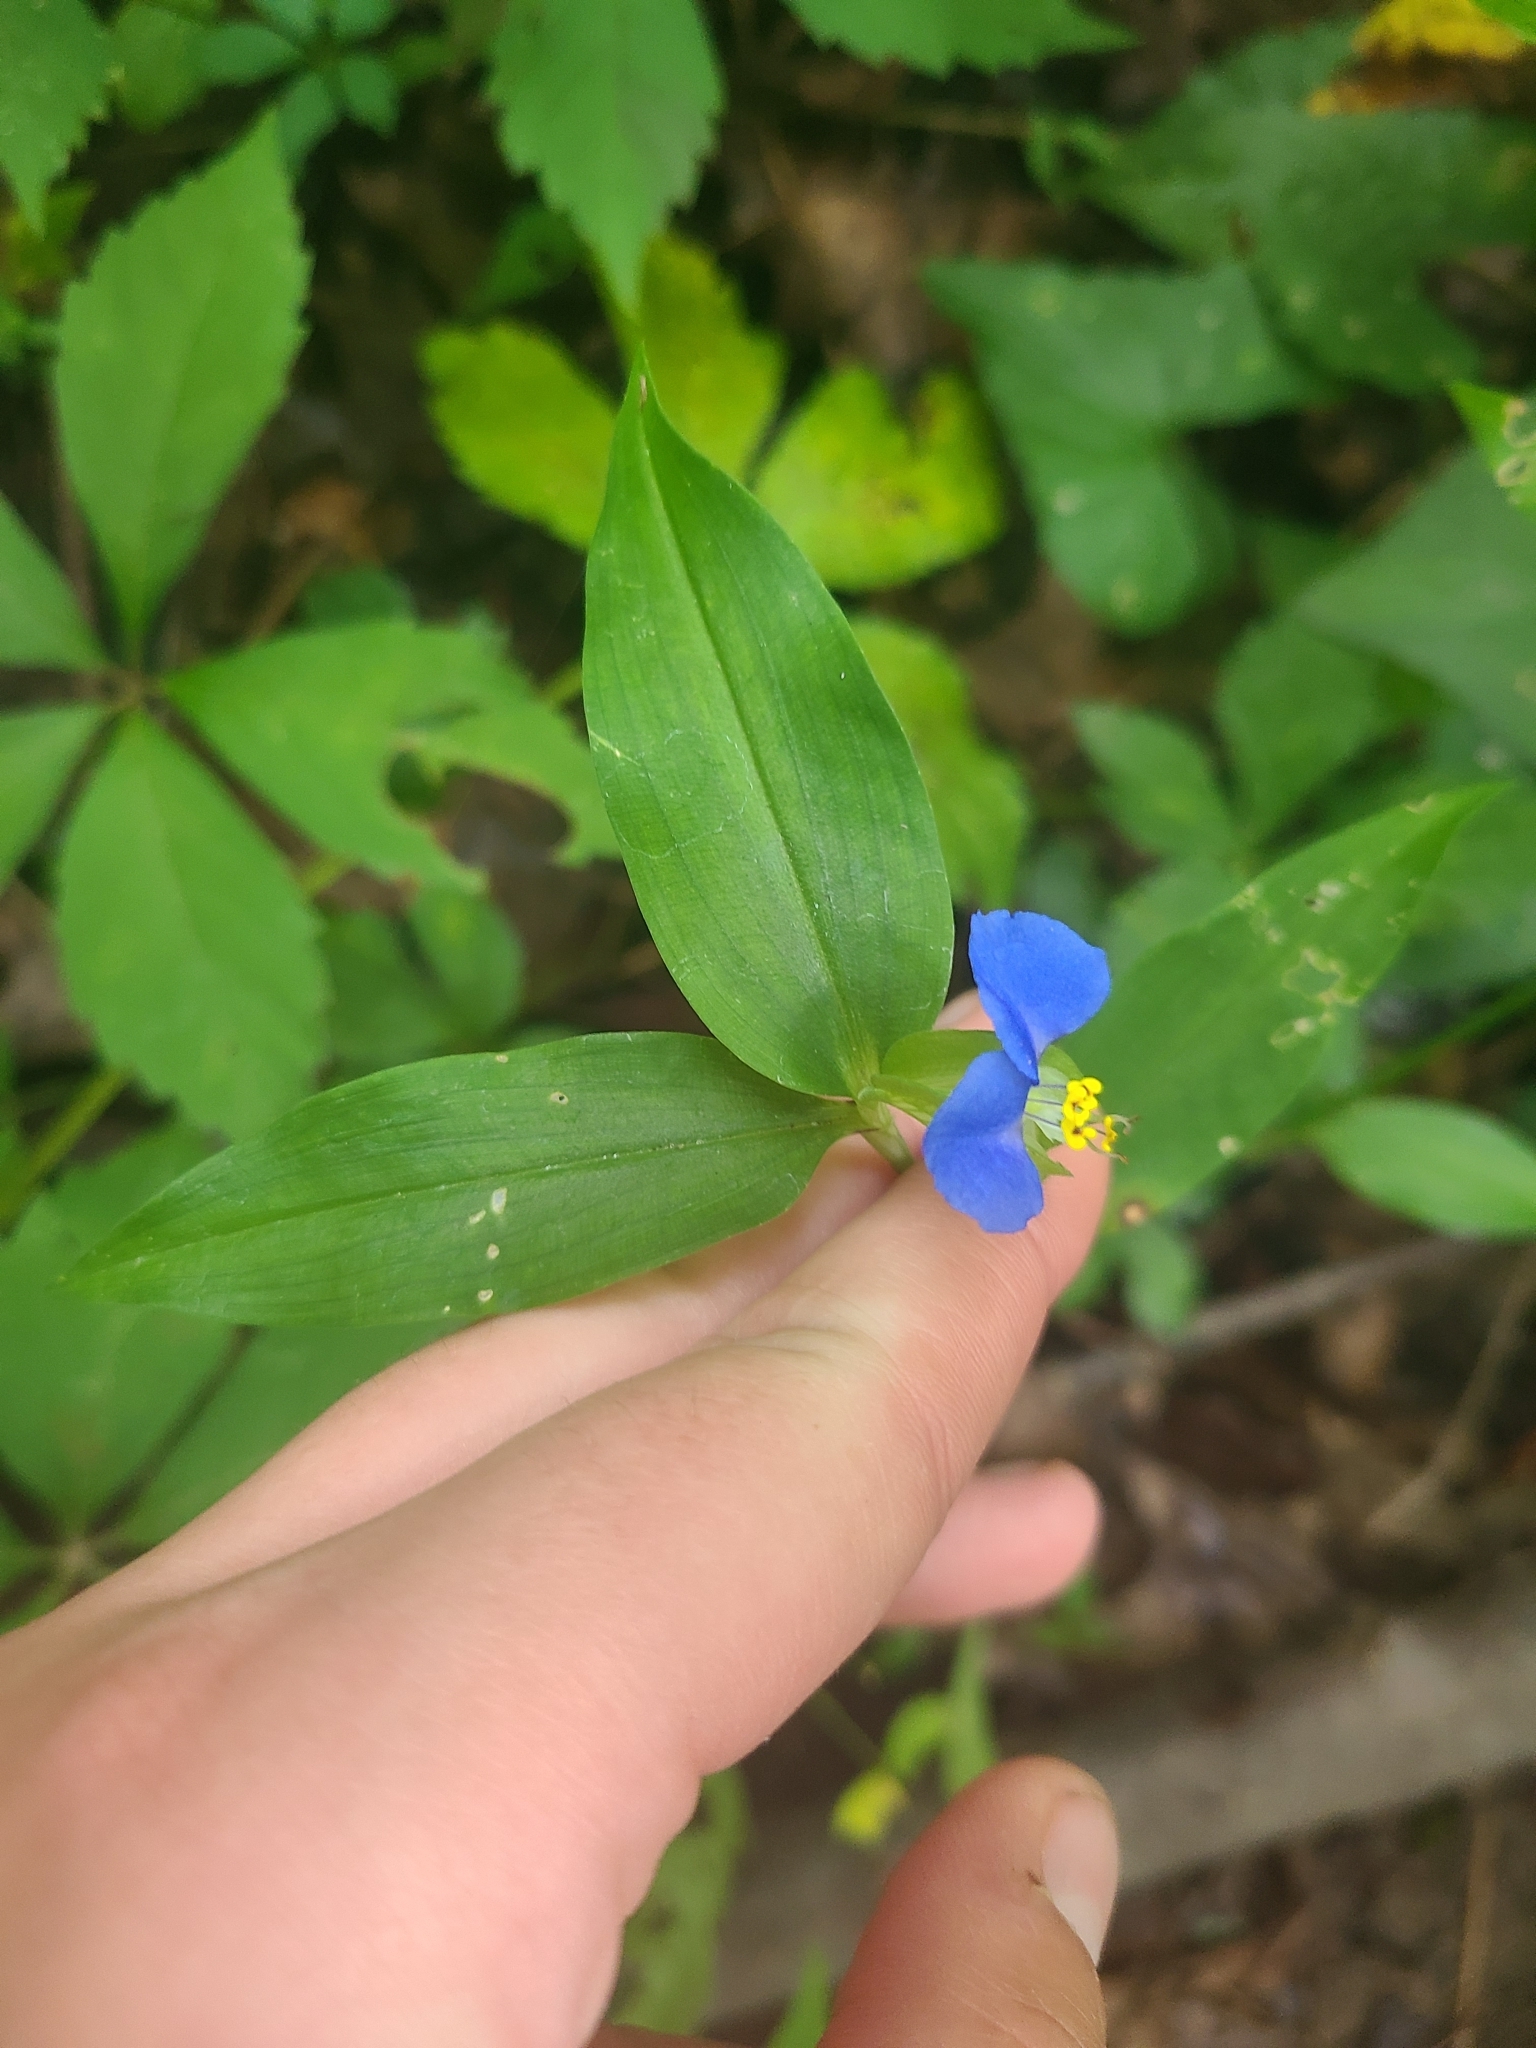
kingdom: Plantae
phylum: Tracheophyta
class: Liliopsida
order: Commelinales
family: Commelinaceae
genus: Commelina
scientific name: Commelina communis
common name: Asiatic dayflower
